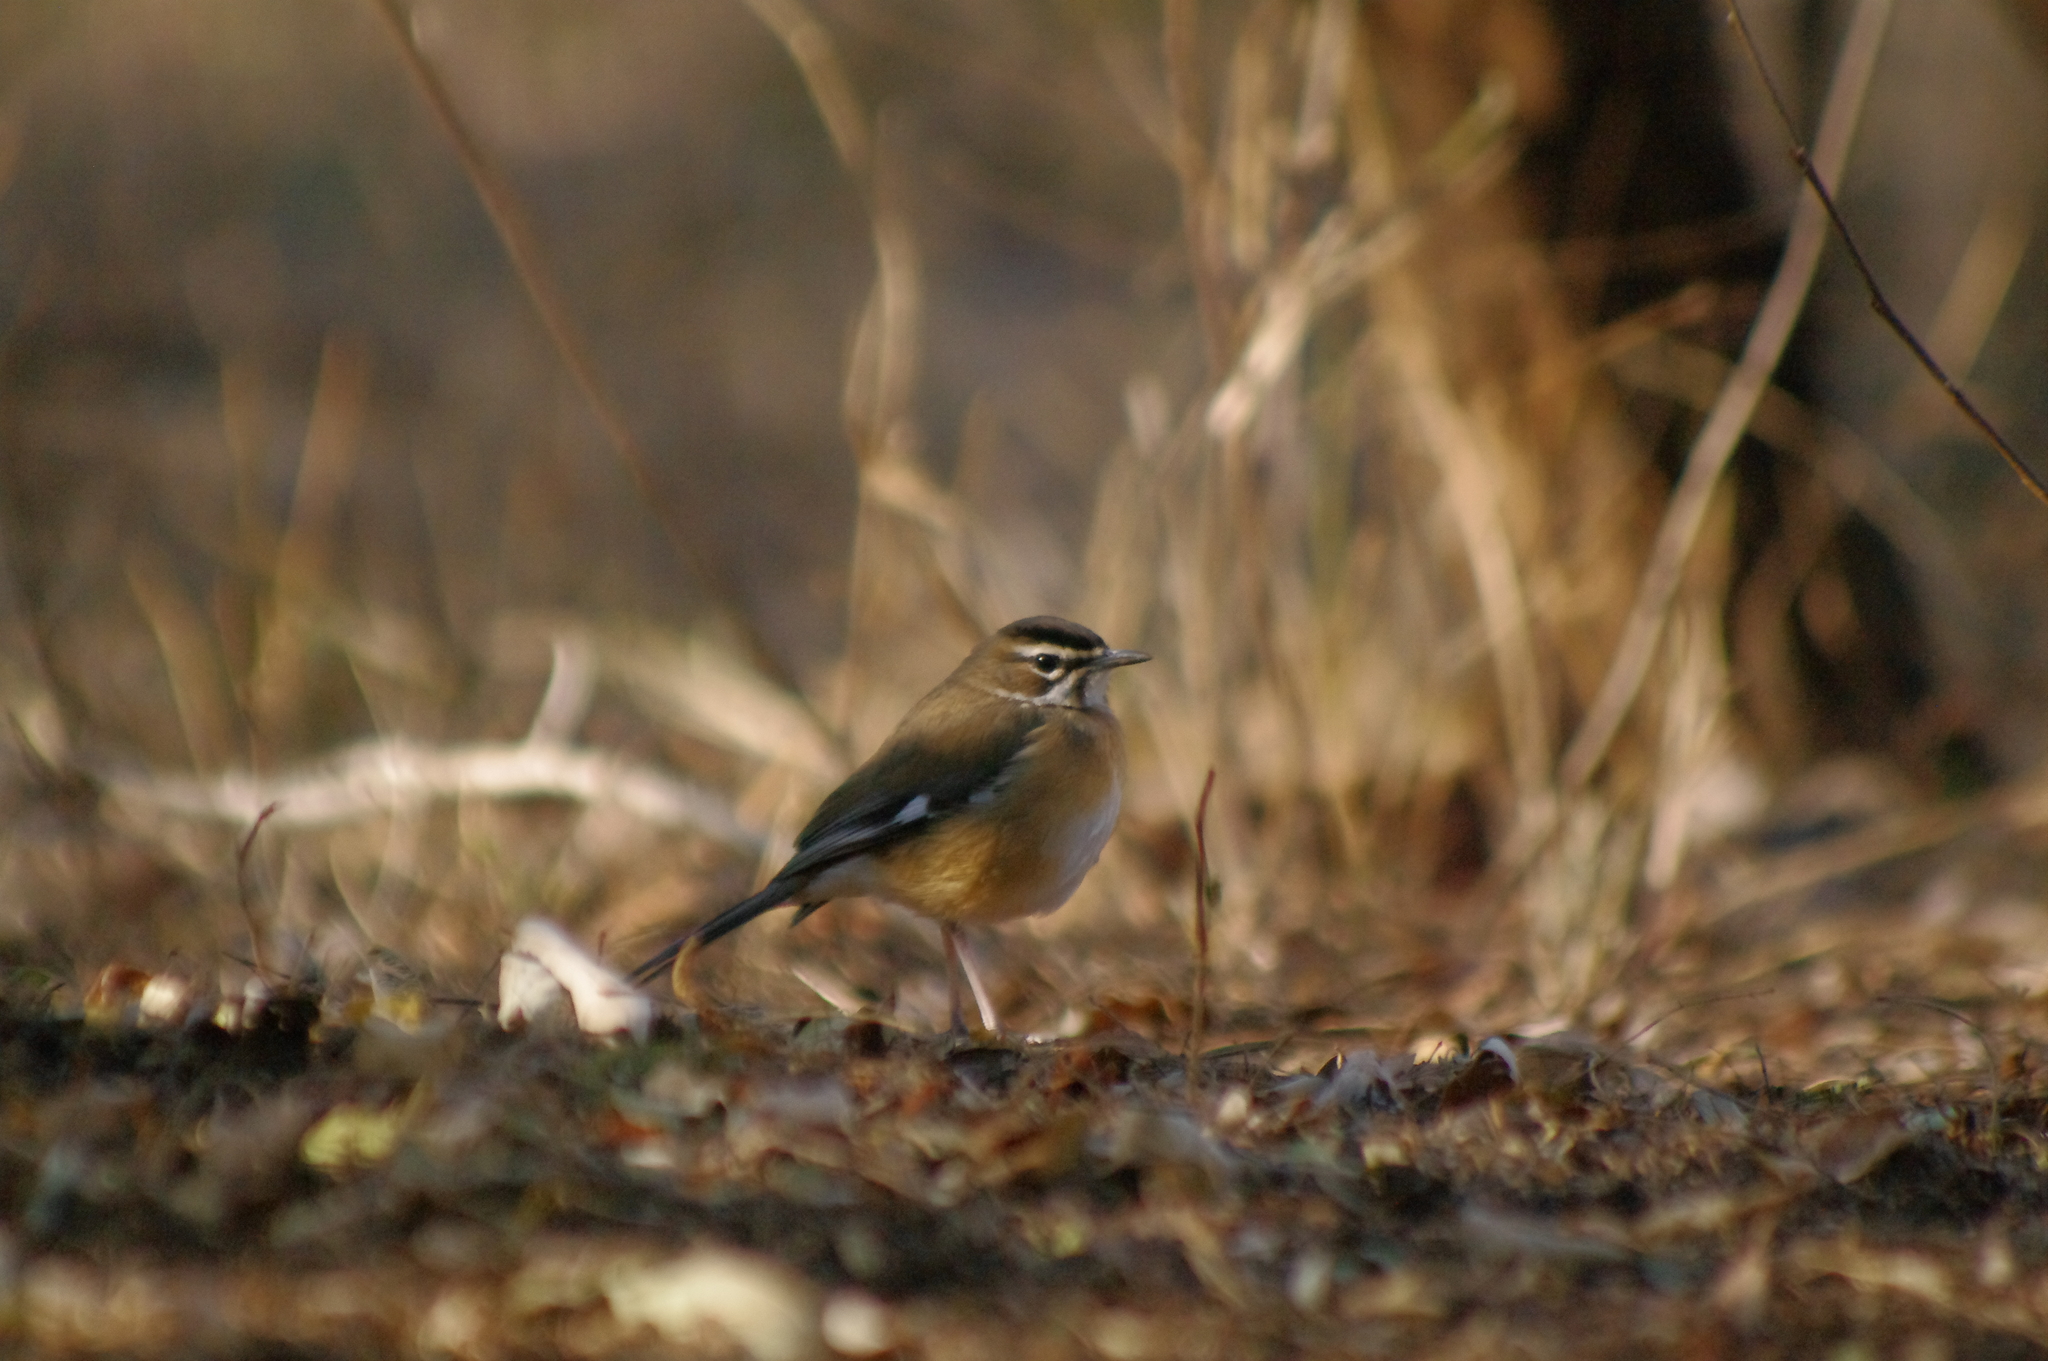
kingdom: Animalia
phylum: Chordata
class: Aves
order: Passeriformes
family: Muscicapidae
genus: Erythropygia
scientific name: Erythropygia quadrivirgata
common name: Bearded scrub robin
